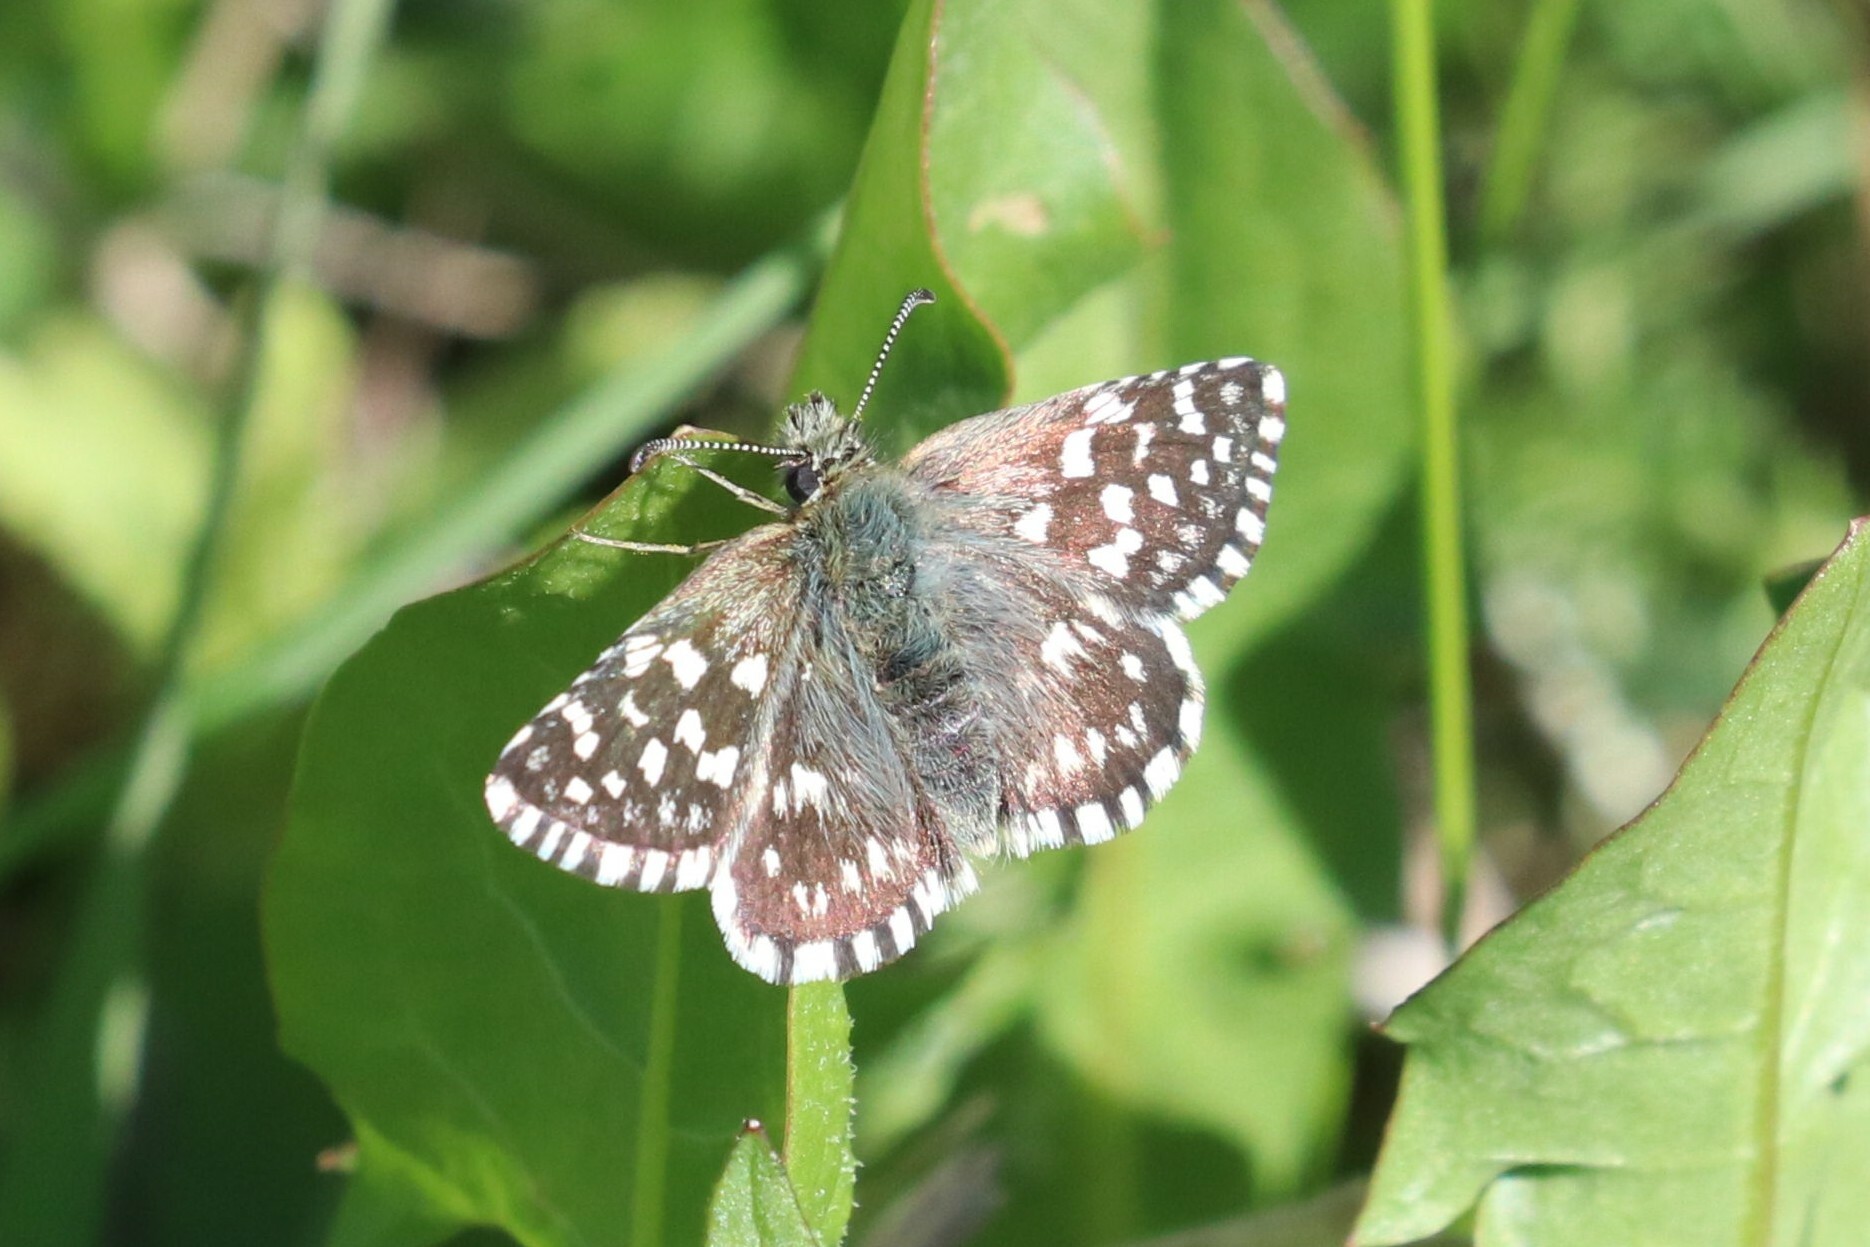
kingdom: Animalia
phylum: Arthropoda
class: Insecta
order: Lepidoptera
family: Hesperiidae
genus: Pyrgus
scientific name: Pyrgus malvae
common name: Grizzled skipper
